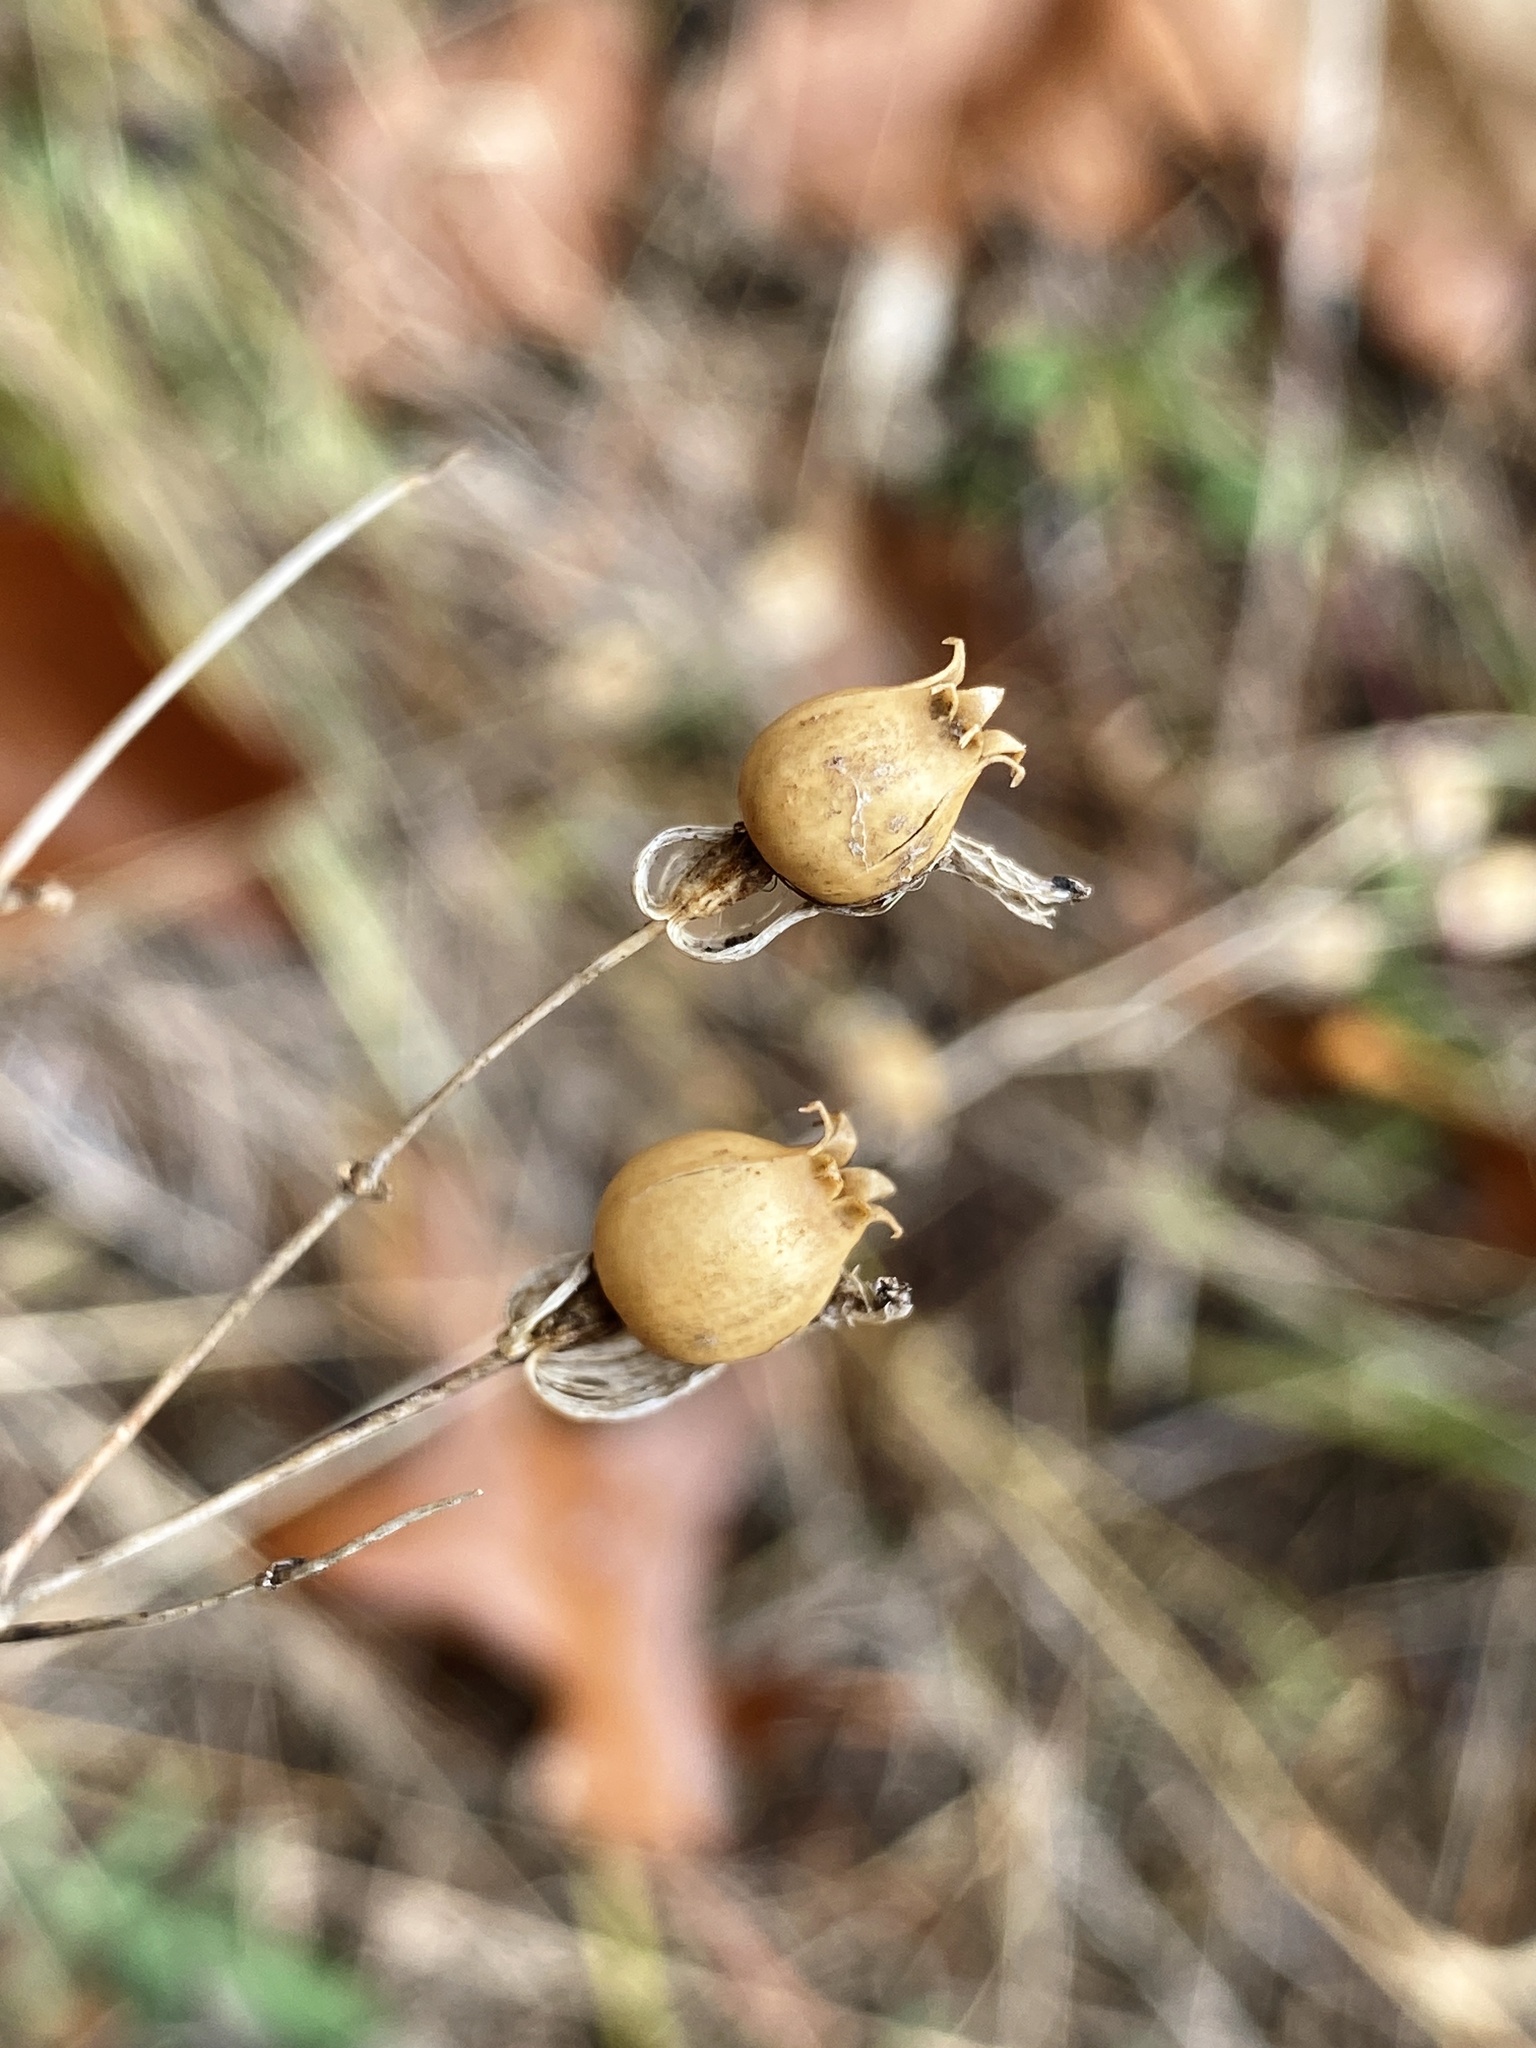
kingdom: Plantae
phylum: Tracheophyta
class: Magnoliopsida
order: Caryophyllales
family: Caryophyllaceae
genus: Silene
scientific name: Silene vulgaris
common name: Bladder campion
